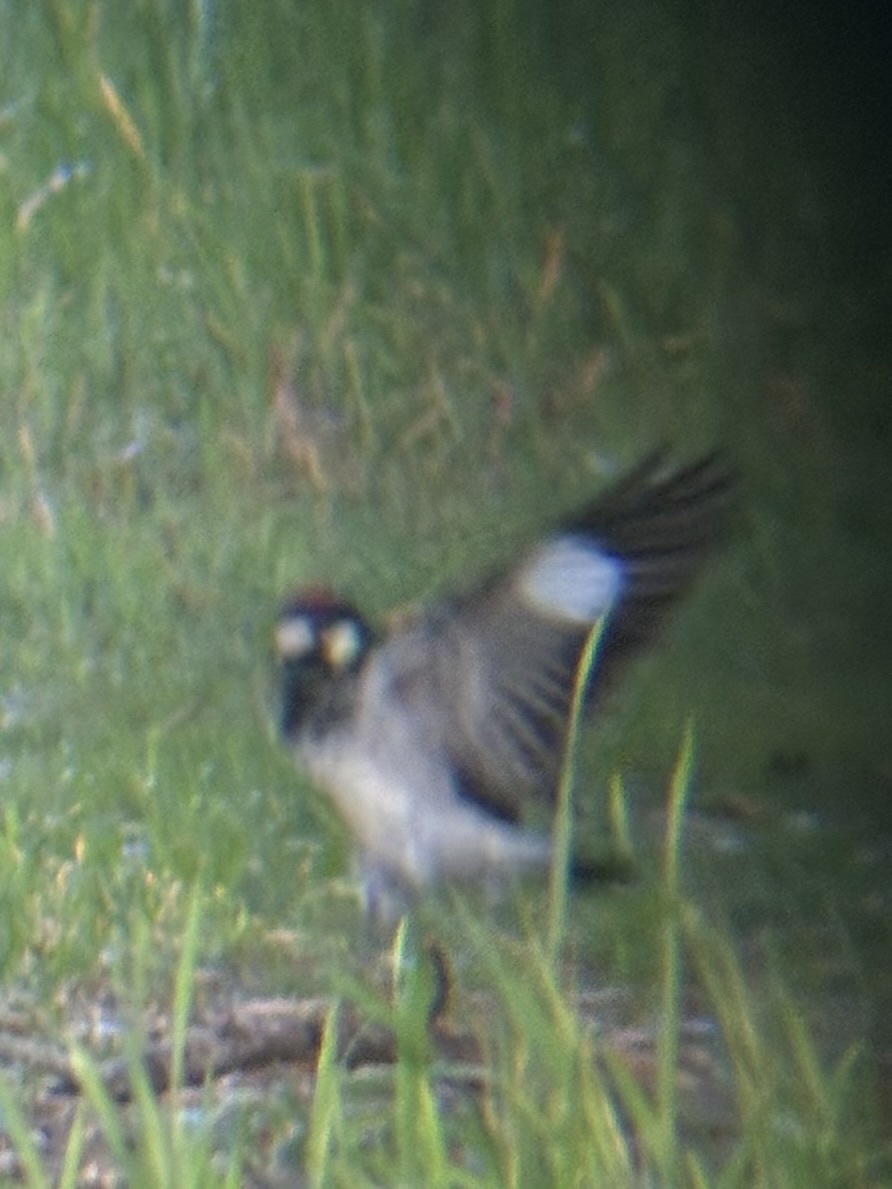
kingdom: Animalia
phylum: Chordata
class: Aves
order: Piciformes
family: Picidae
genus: Melanerpes
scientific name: Melanerpes formicivorus
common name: Acorn woodpecker
